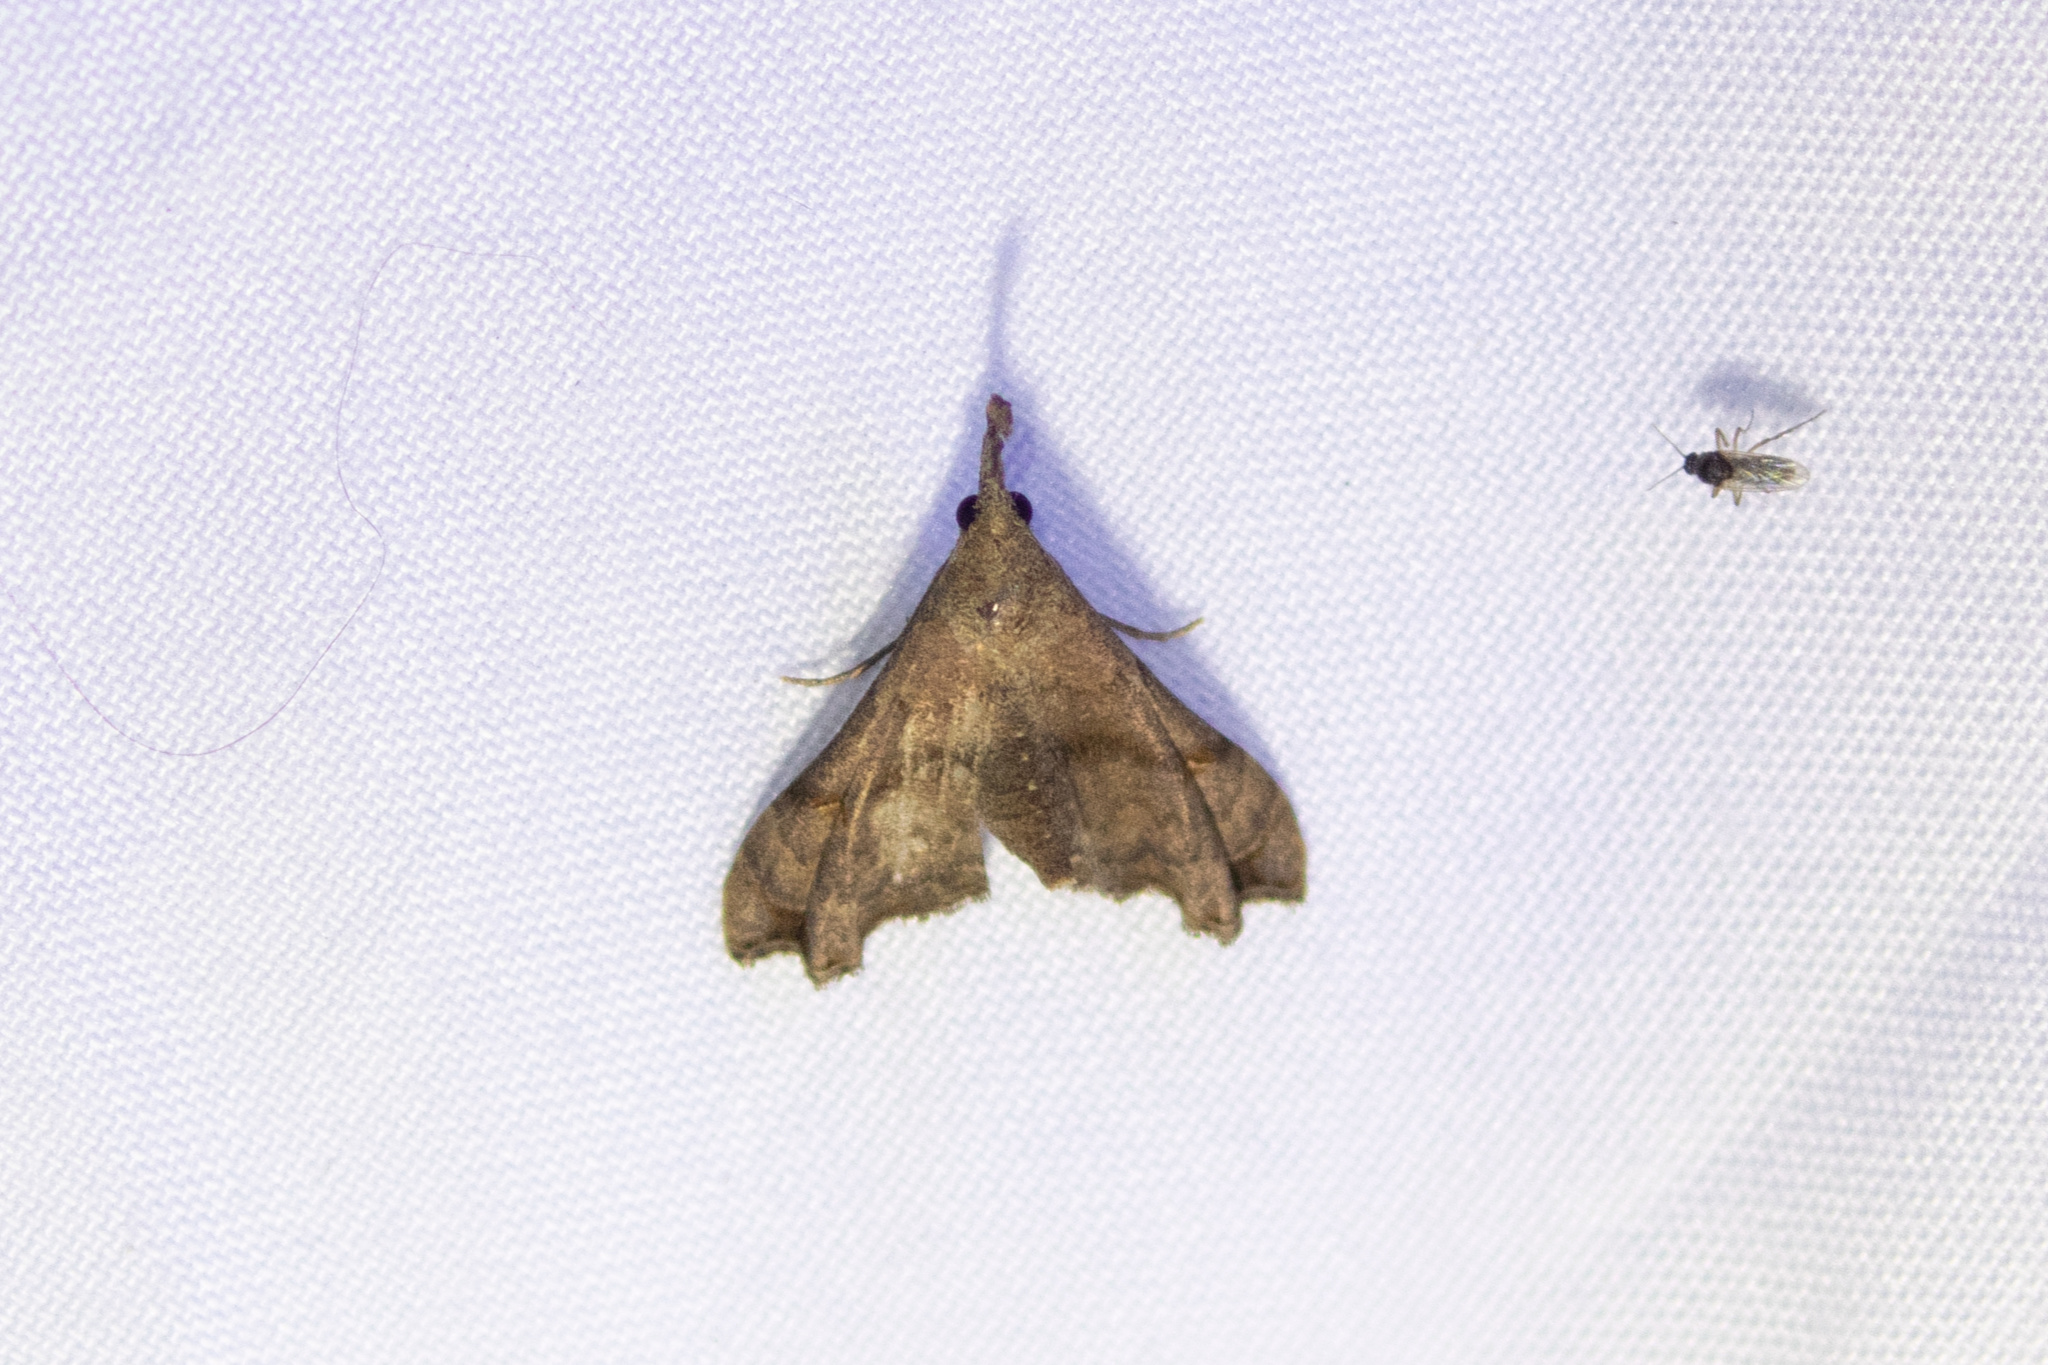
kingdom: Animalia
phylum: Arthropoda
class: Insecta
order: Lepidoptera
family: Erebidae
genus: Palthis
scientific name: Palthis angulalis
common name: Dark-spotted palthis moth
